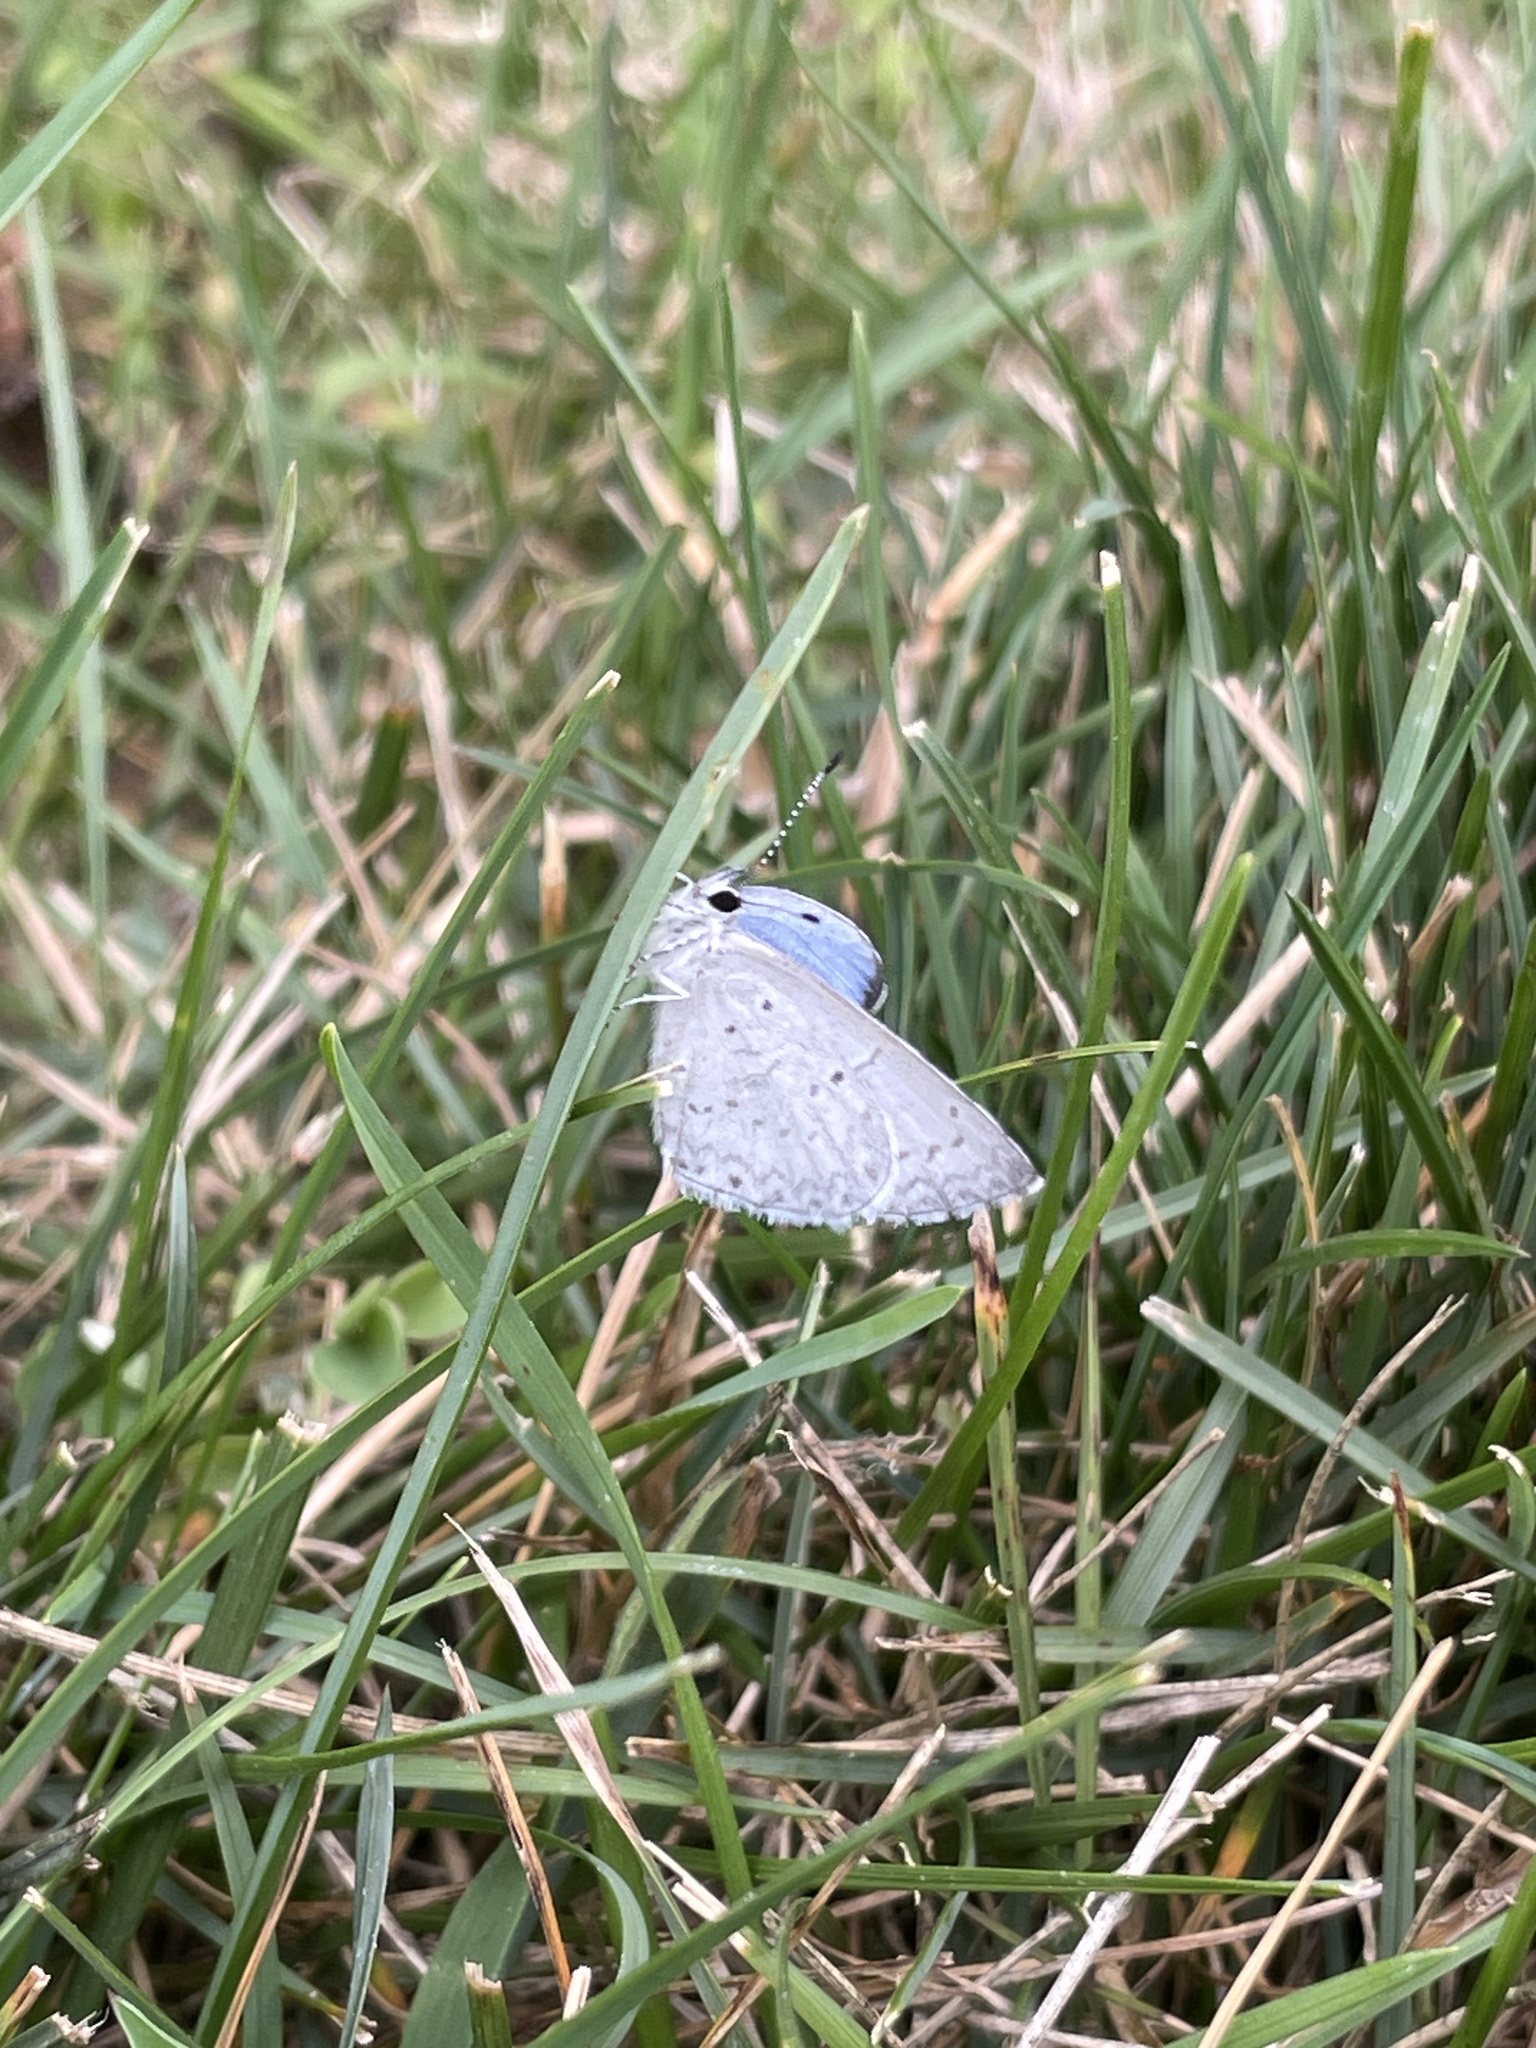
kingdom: Animalia
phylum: Arthropoda
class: Insecta
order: Lepidoptera
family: Lycaenidae
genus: Cyaniris
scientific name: Cyaniris neglecta
